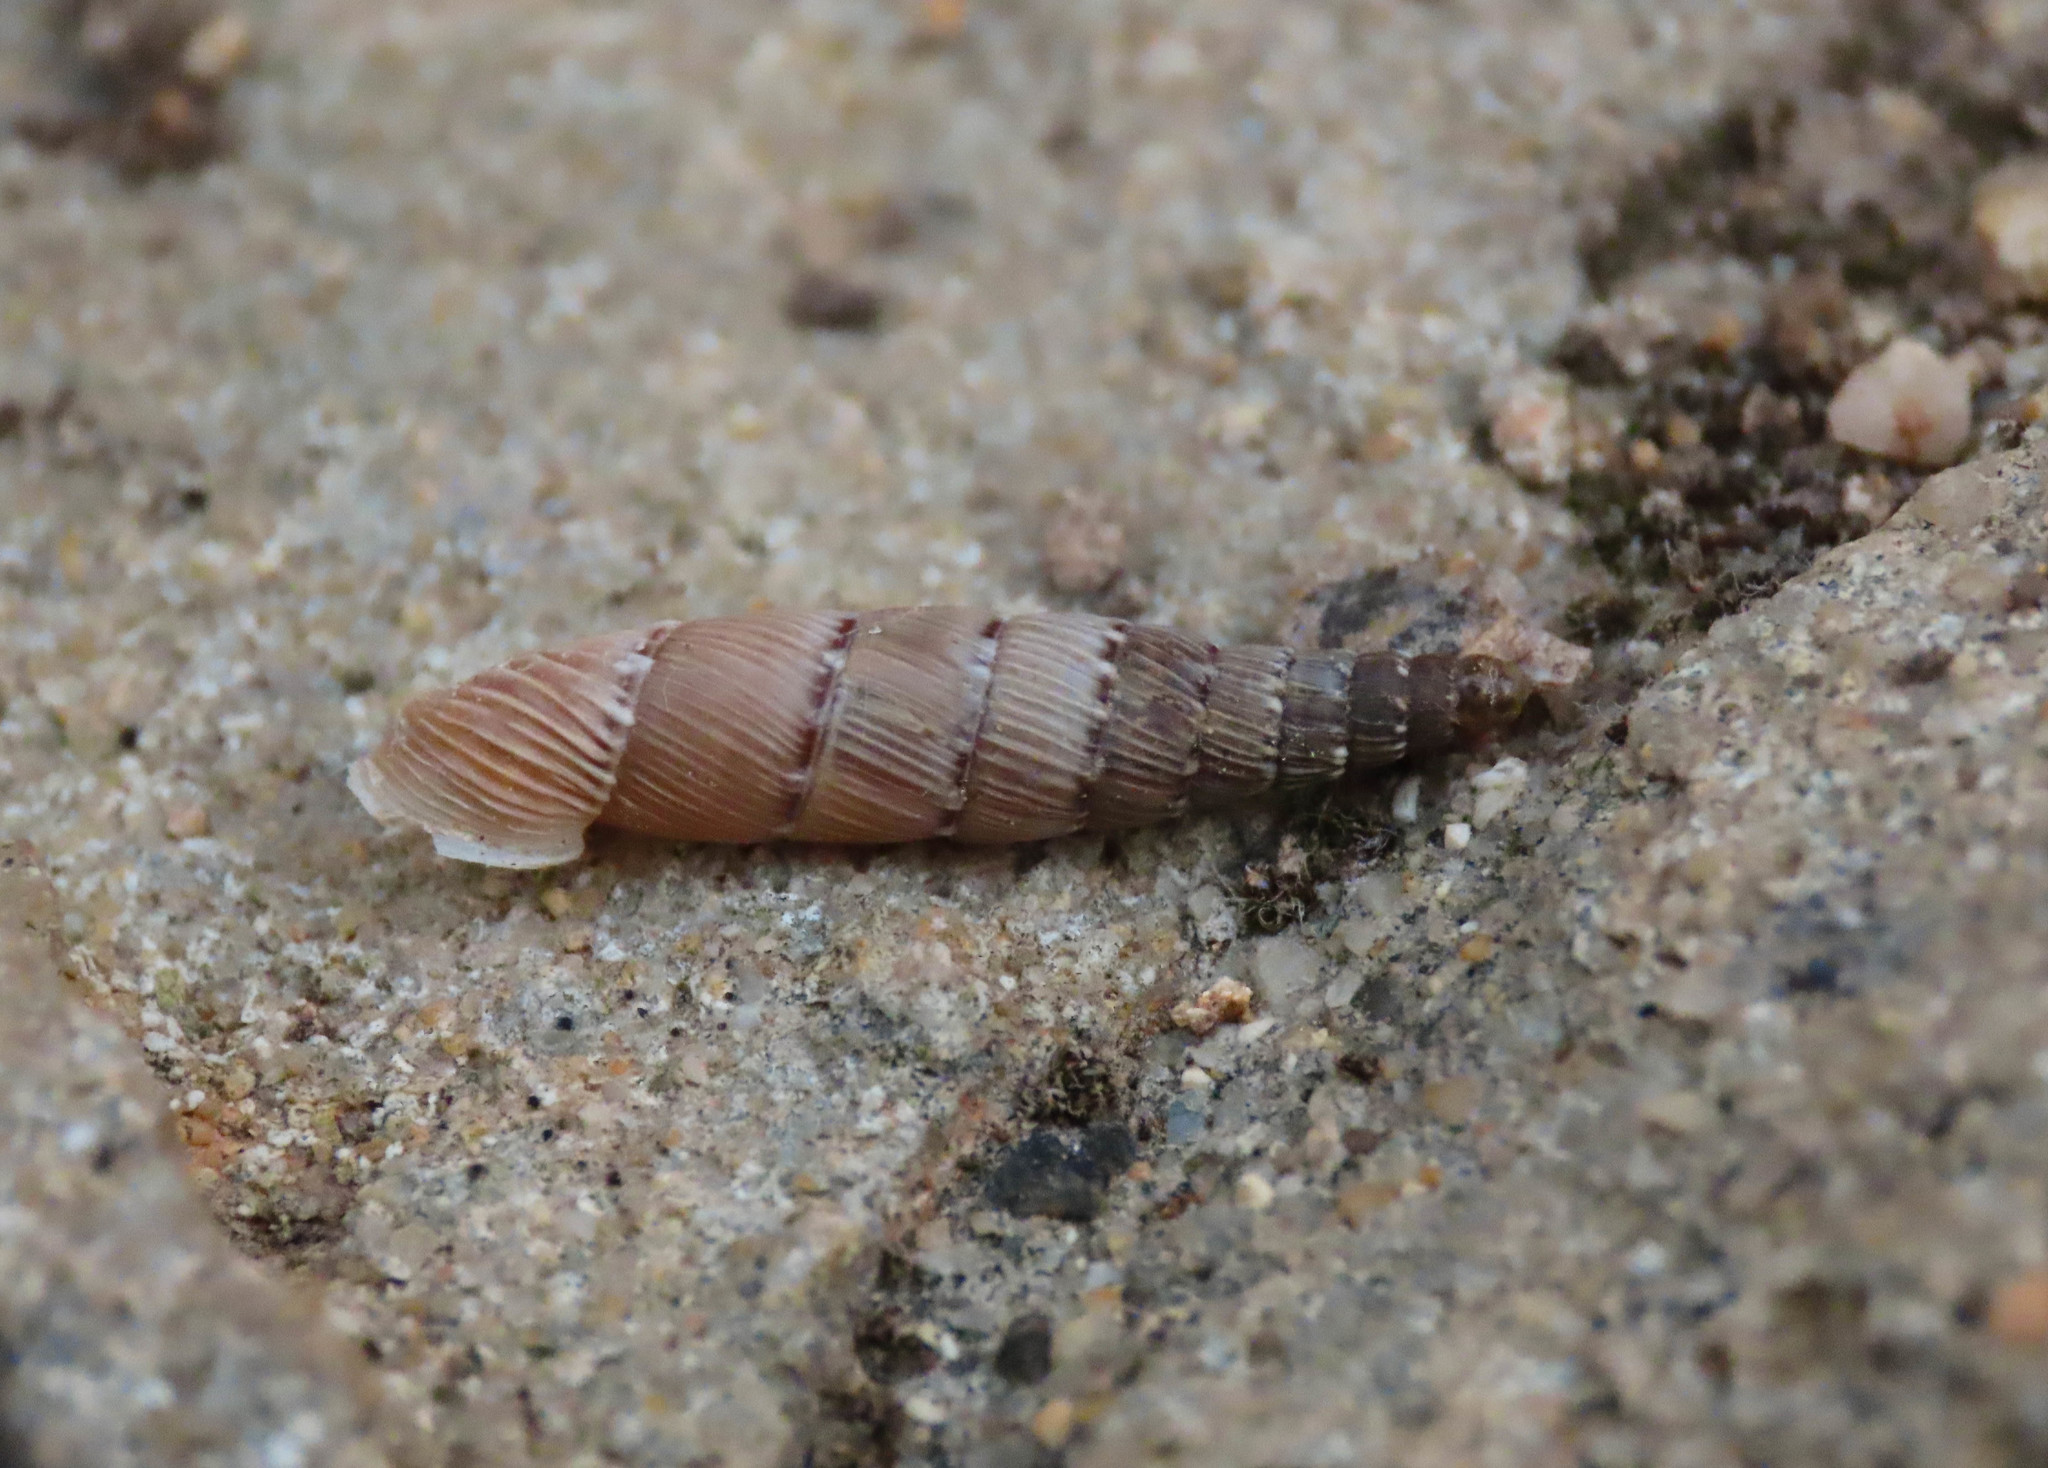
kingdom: Animalia
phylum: Mollusca
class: Gastropoda
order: Stylommatophora
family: Clausiliidae
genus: Papillifera
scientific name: Papillifera papillaris
